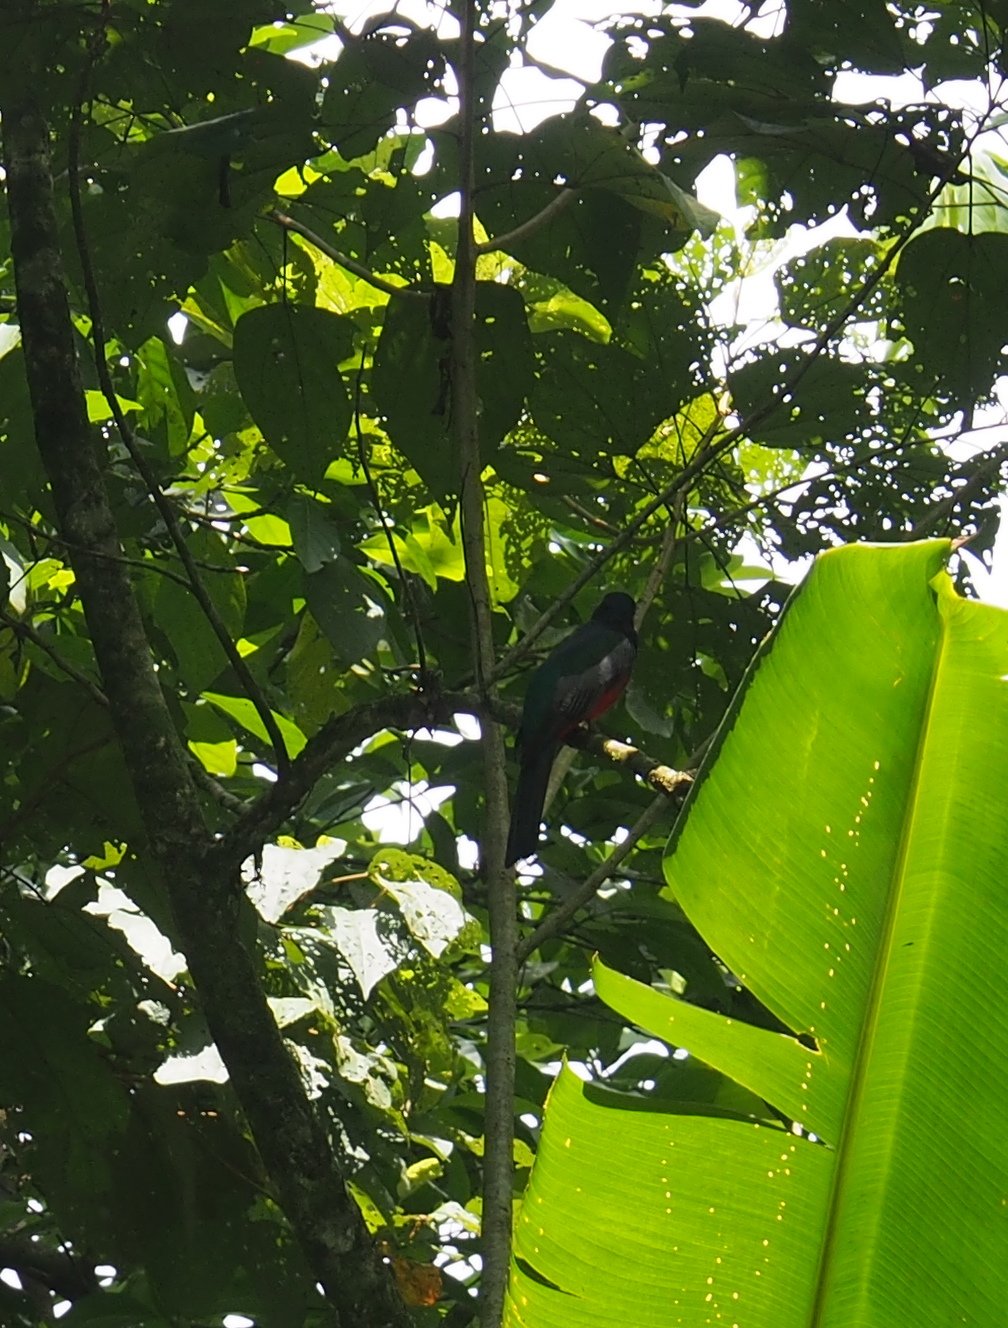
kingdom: Animalia
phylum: Chordata
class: Aves
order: Trogoniformes
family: Trogonidae
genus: Trogon
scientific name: Trogon massena
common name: Slaty-tailed trogon
